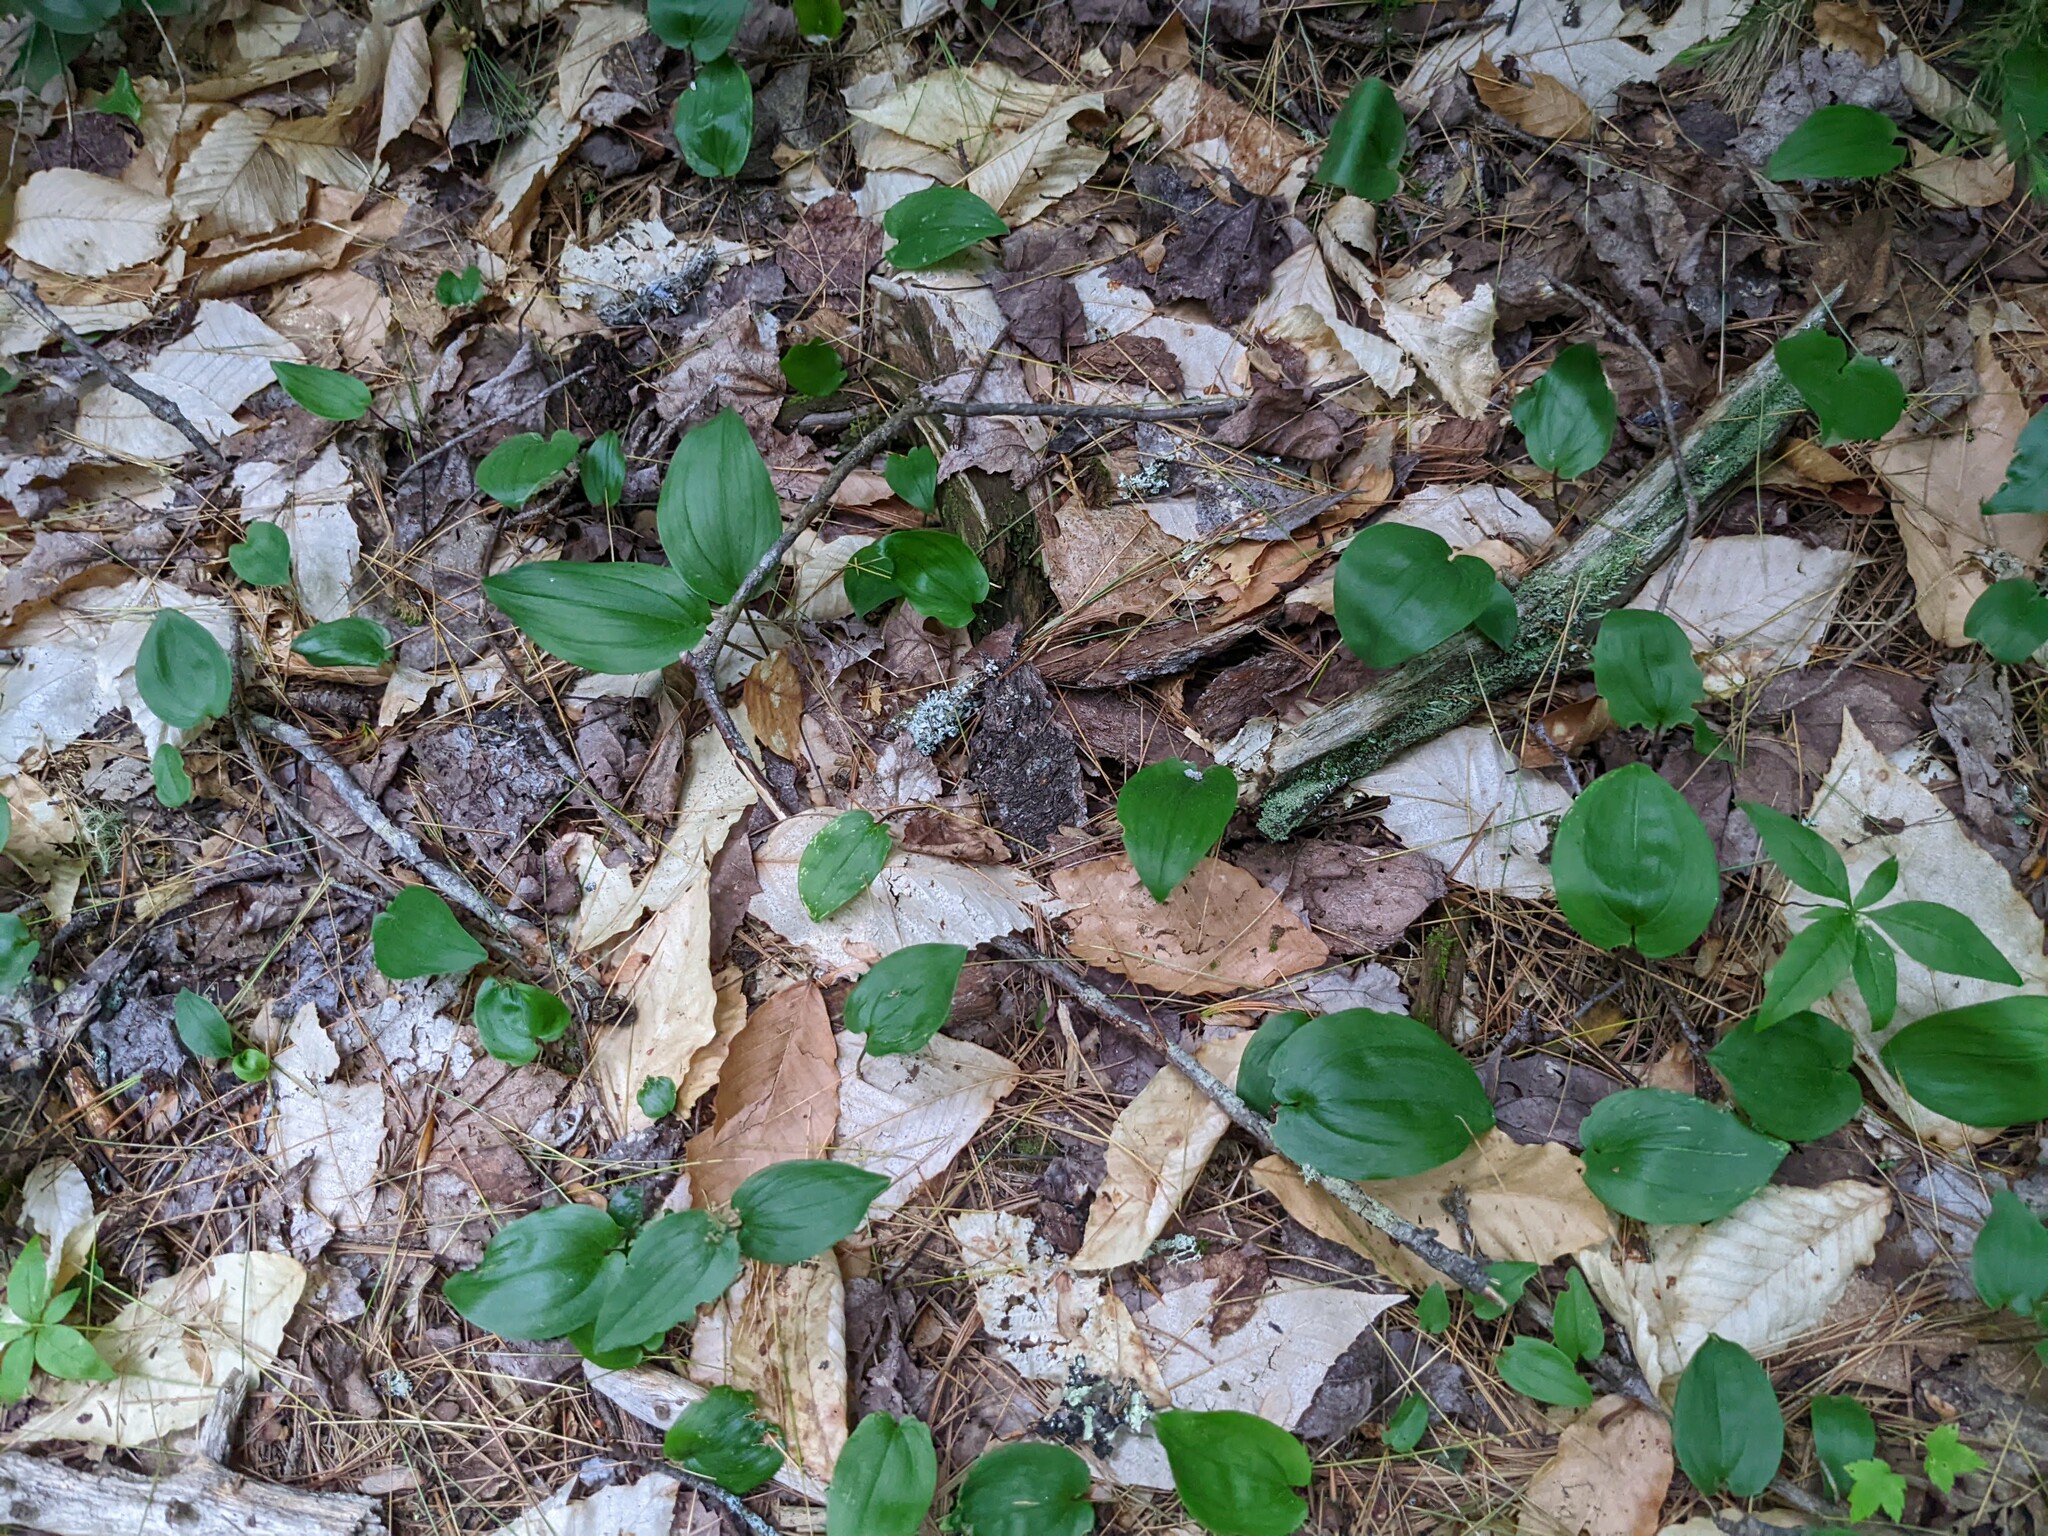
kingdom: Plantae
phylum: Tracheophyta
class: Magnoliopsida
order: Fagales
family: Fagaceae
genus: Fagus
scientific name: Fagus grandifolia
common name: American beech
